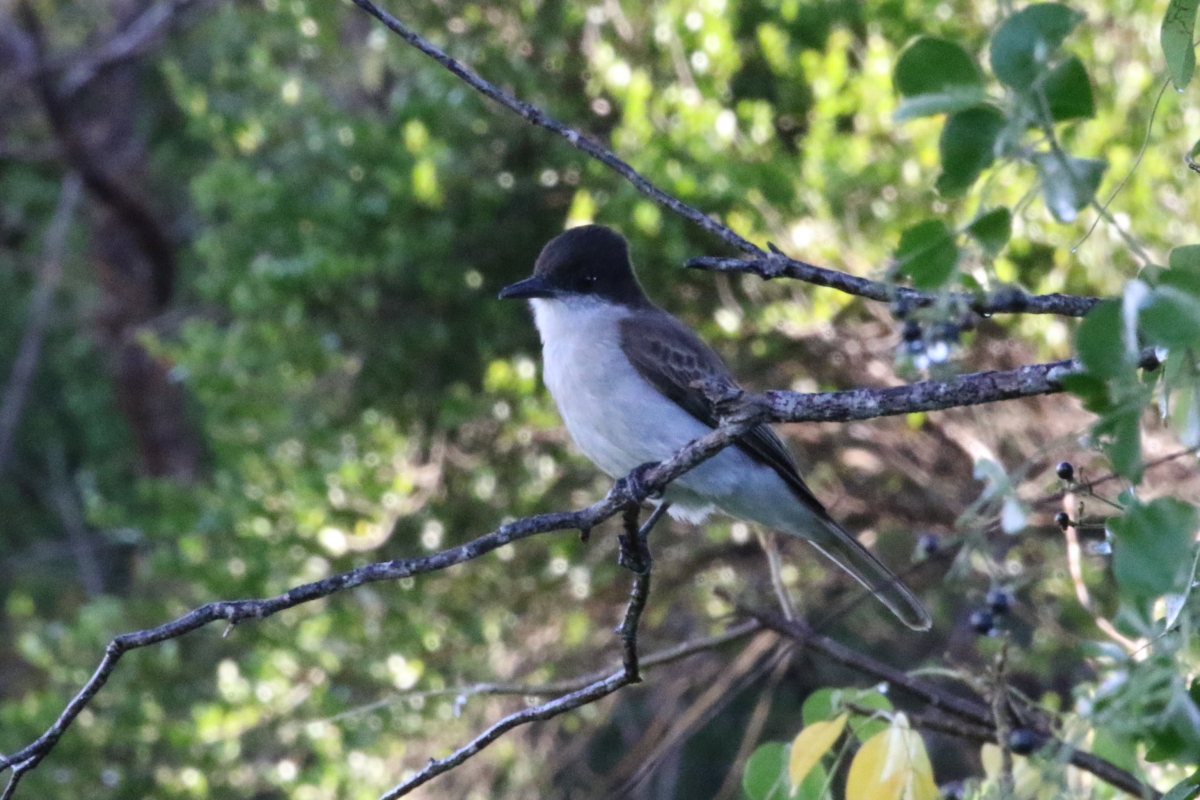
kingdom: Animalia
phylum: Chordata
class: Aves
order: Passeriformes
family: Tyrannidae
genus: Tyrannus
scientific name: Tyrannus caudifasciatus
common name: Loggerhead kingbird
